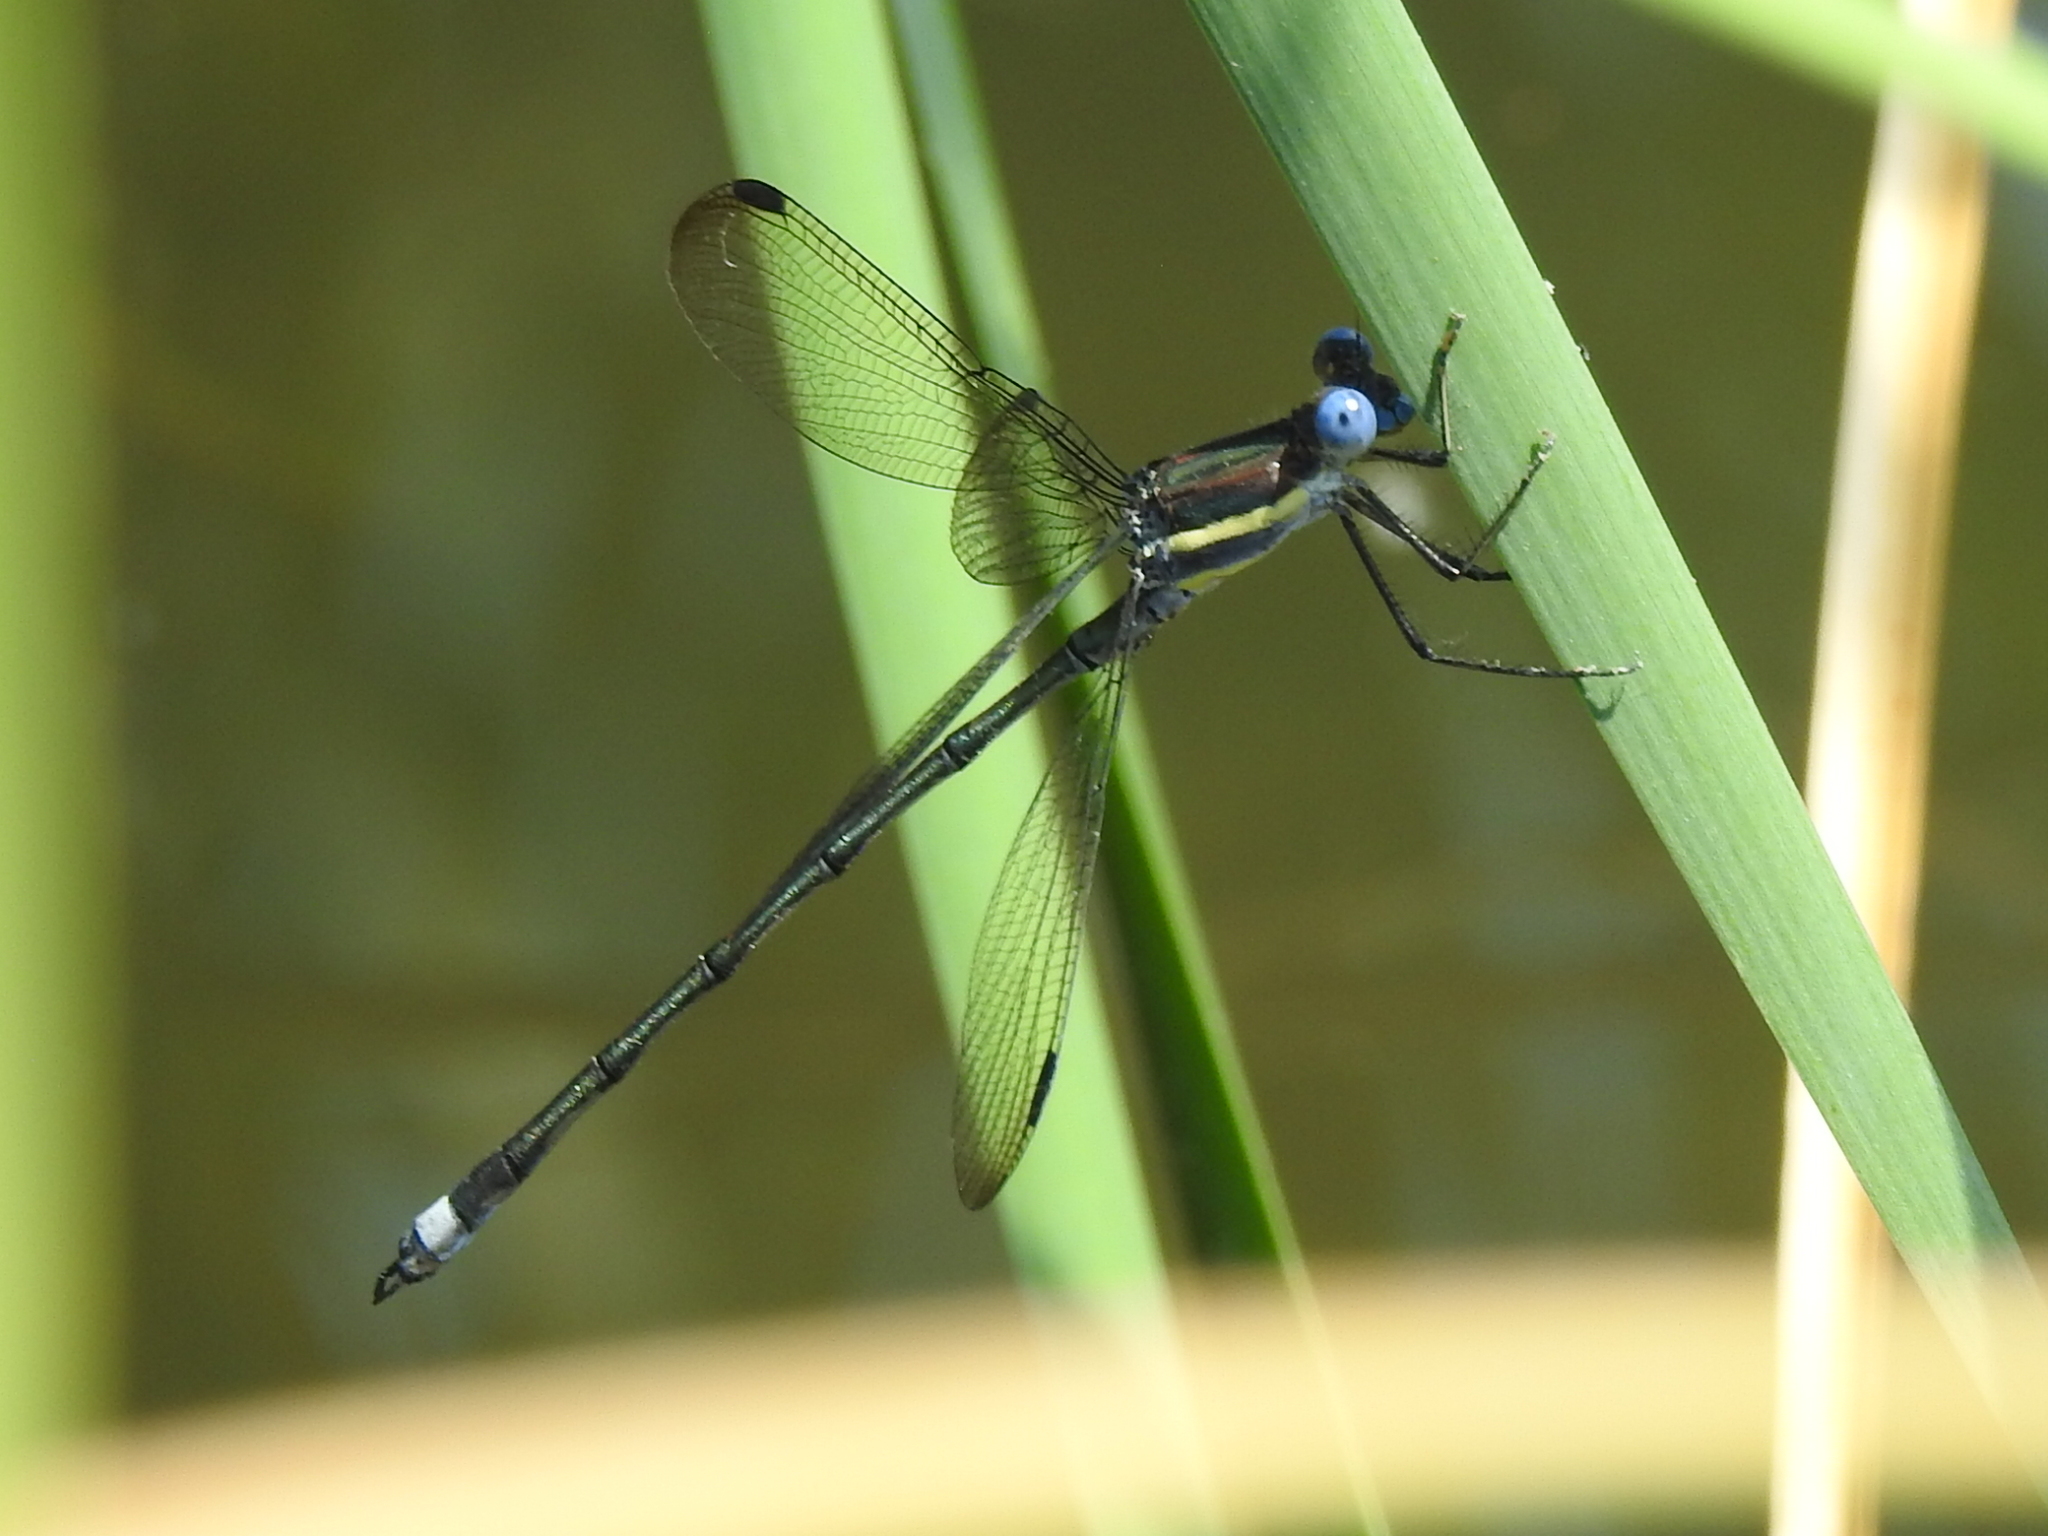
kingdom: Animalia
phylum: Arthropoda
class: Insecta
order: Odonata
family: Lestidae
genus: Archilestes
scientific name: Archilestes grandis
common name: Great spreadwing
